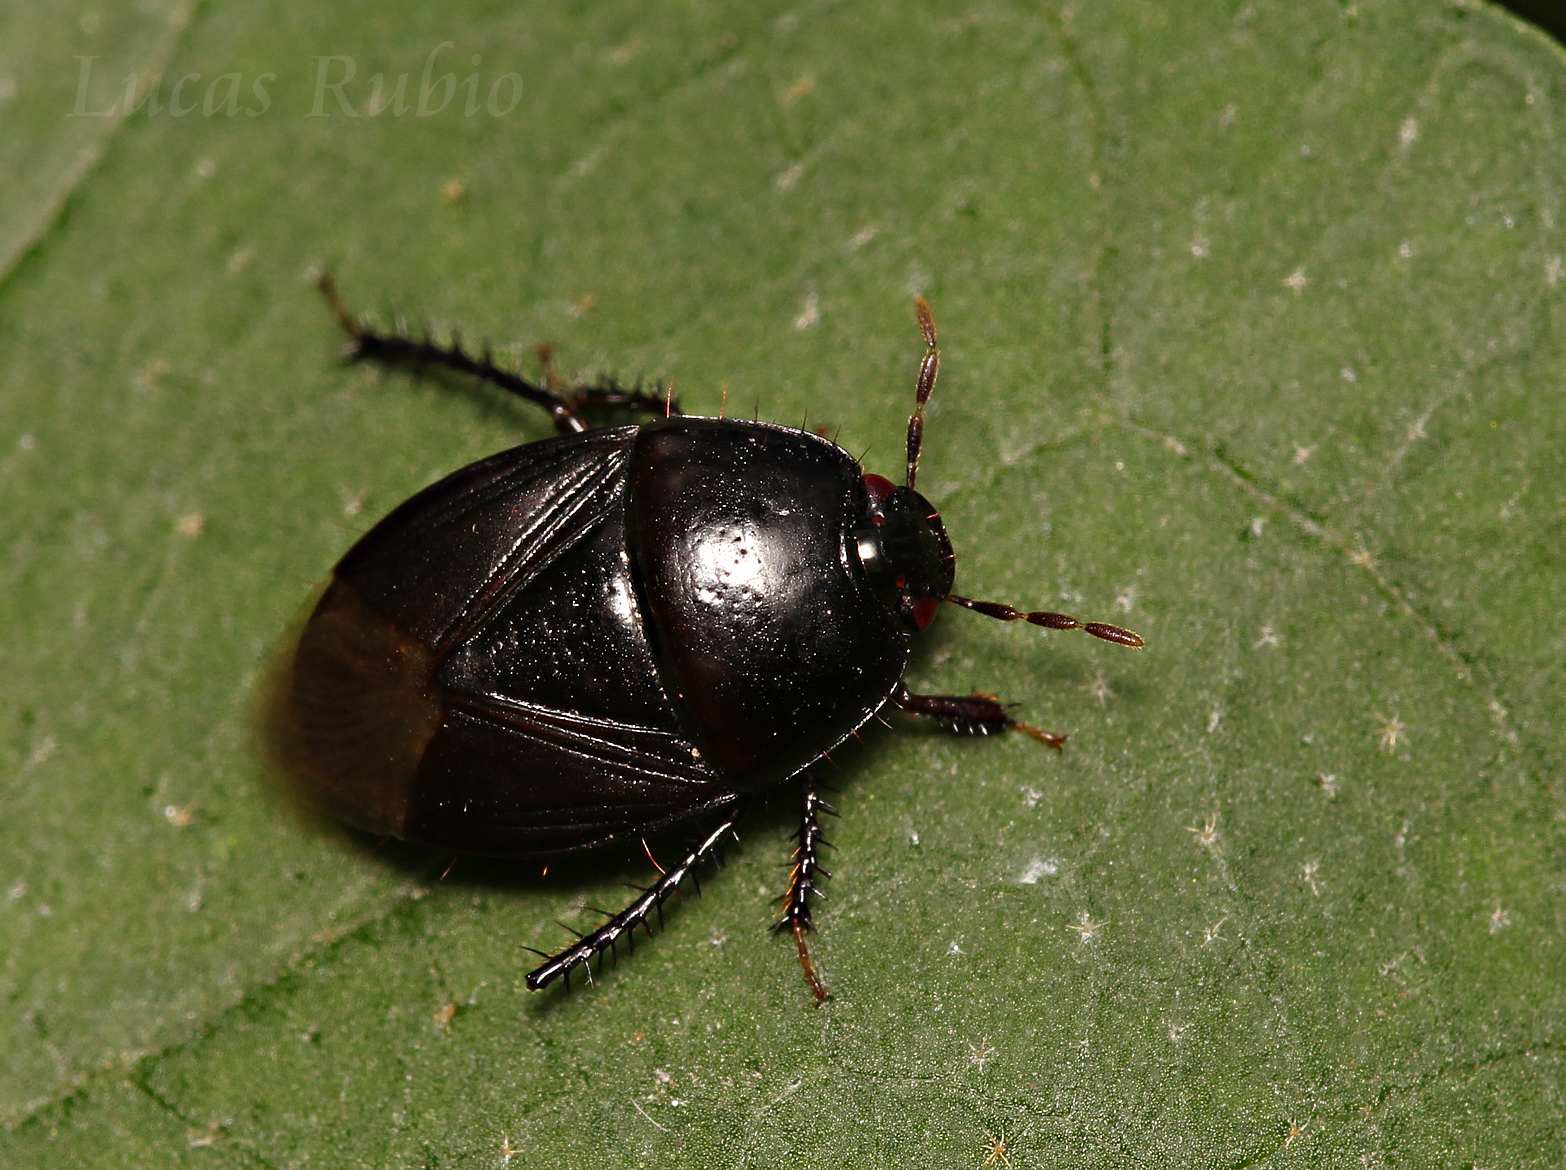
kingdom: Animalia
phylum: Arthropoda
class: Insecta
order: Hemiptera
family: Cydnidae
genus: Cyrtomenus
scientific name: Cyrtomenus bergi
